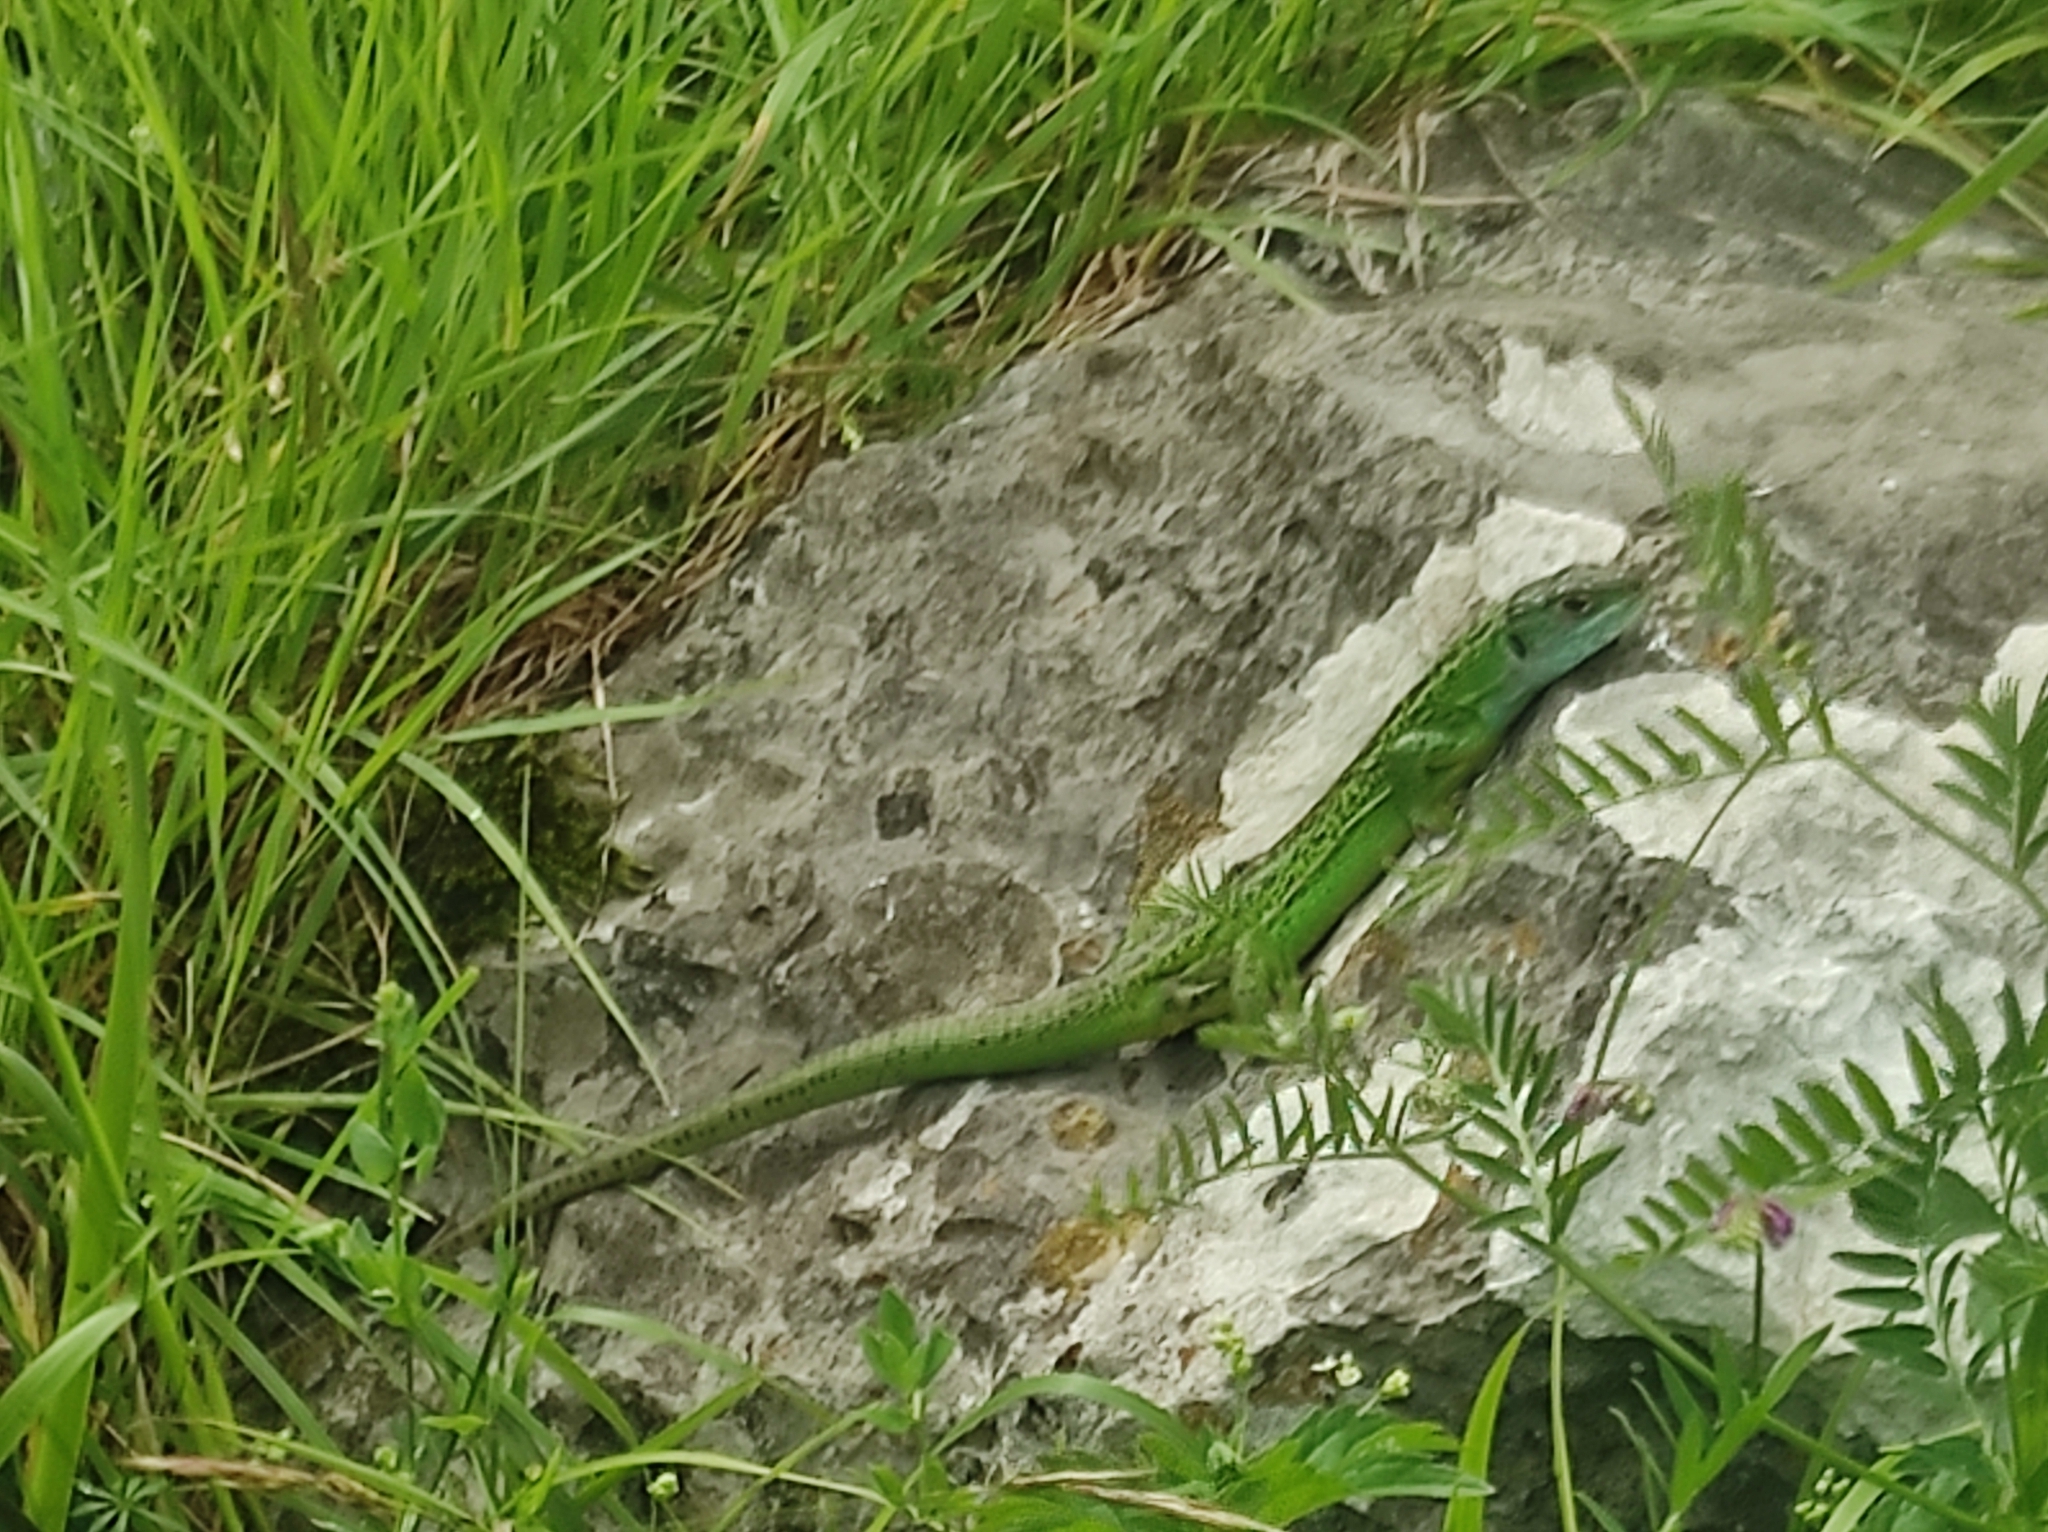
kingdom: Animalia
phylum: Chordata
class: Squamata
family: Lacertidae
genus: Lacerta
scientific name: Lacerta bilineata
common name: Western green lizard
